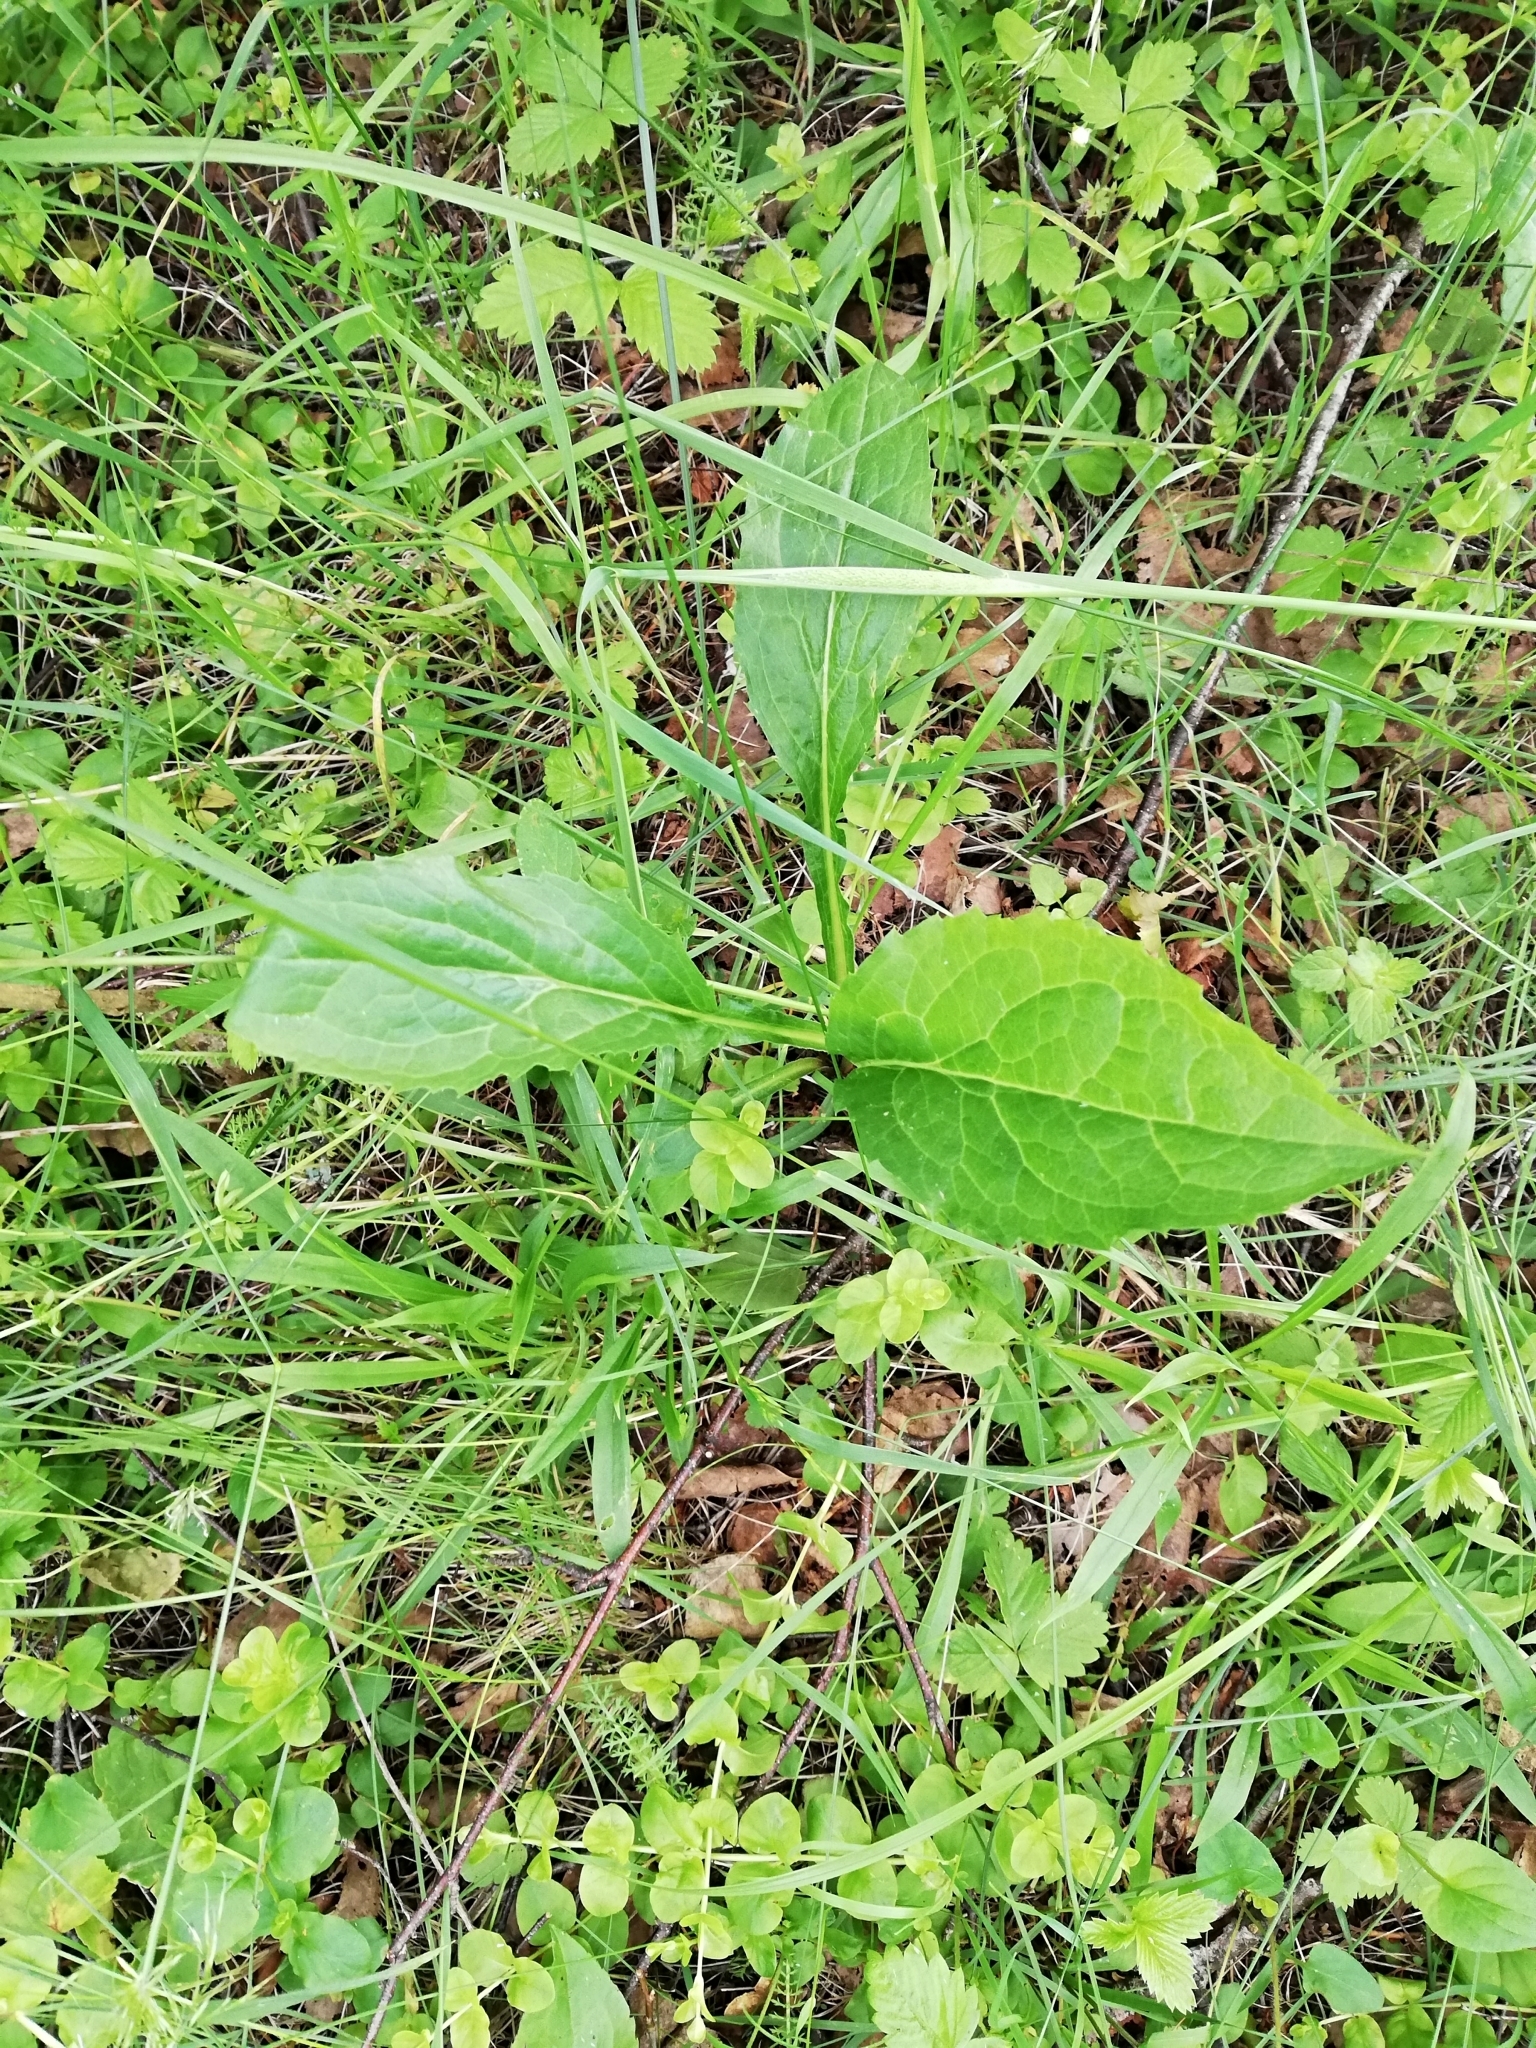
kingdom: Plantae
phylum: Tracheophyta
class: Magnoliopsida
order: Asterales
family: Asteraceae
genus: Solidago
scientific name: Solidago virgaurea
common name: Goldenrod
